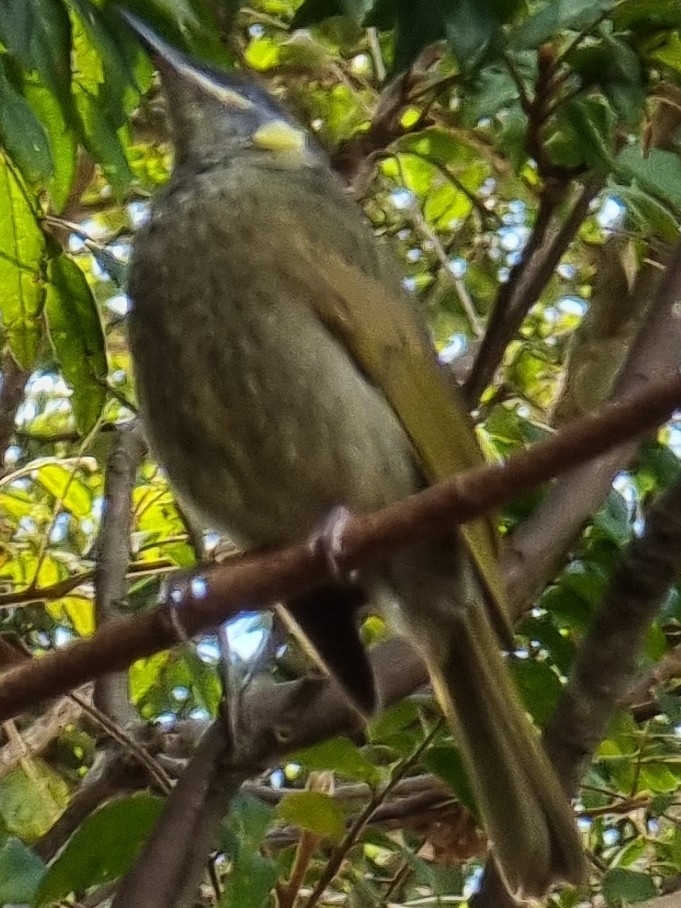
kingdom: Animalia
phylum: Chordata
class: Aves
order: Passeriformes
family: Meliphagidae
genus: Meliphaga
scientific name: Meliphaga lewinii
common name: Lewin's honeyeater
